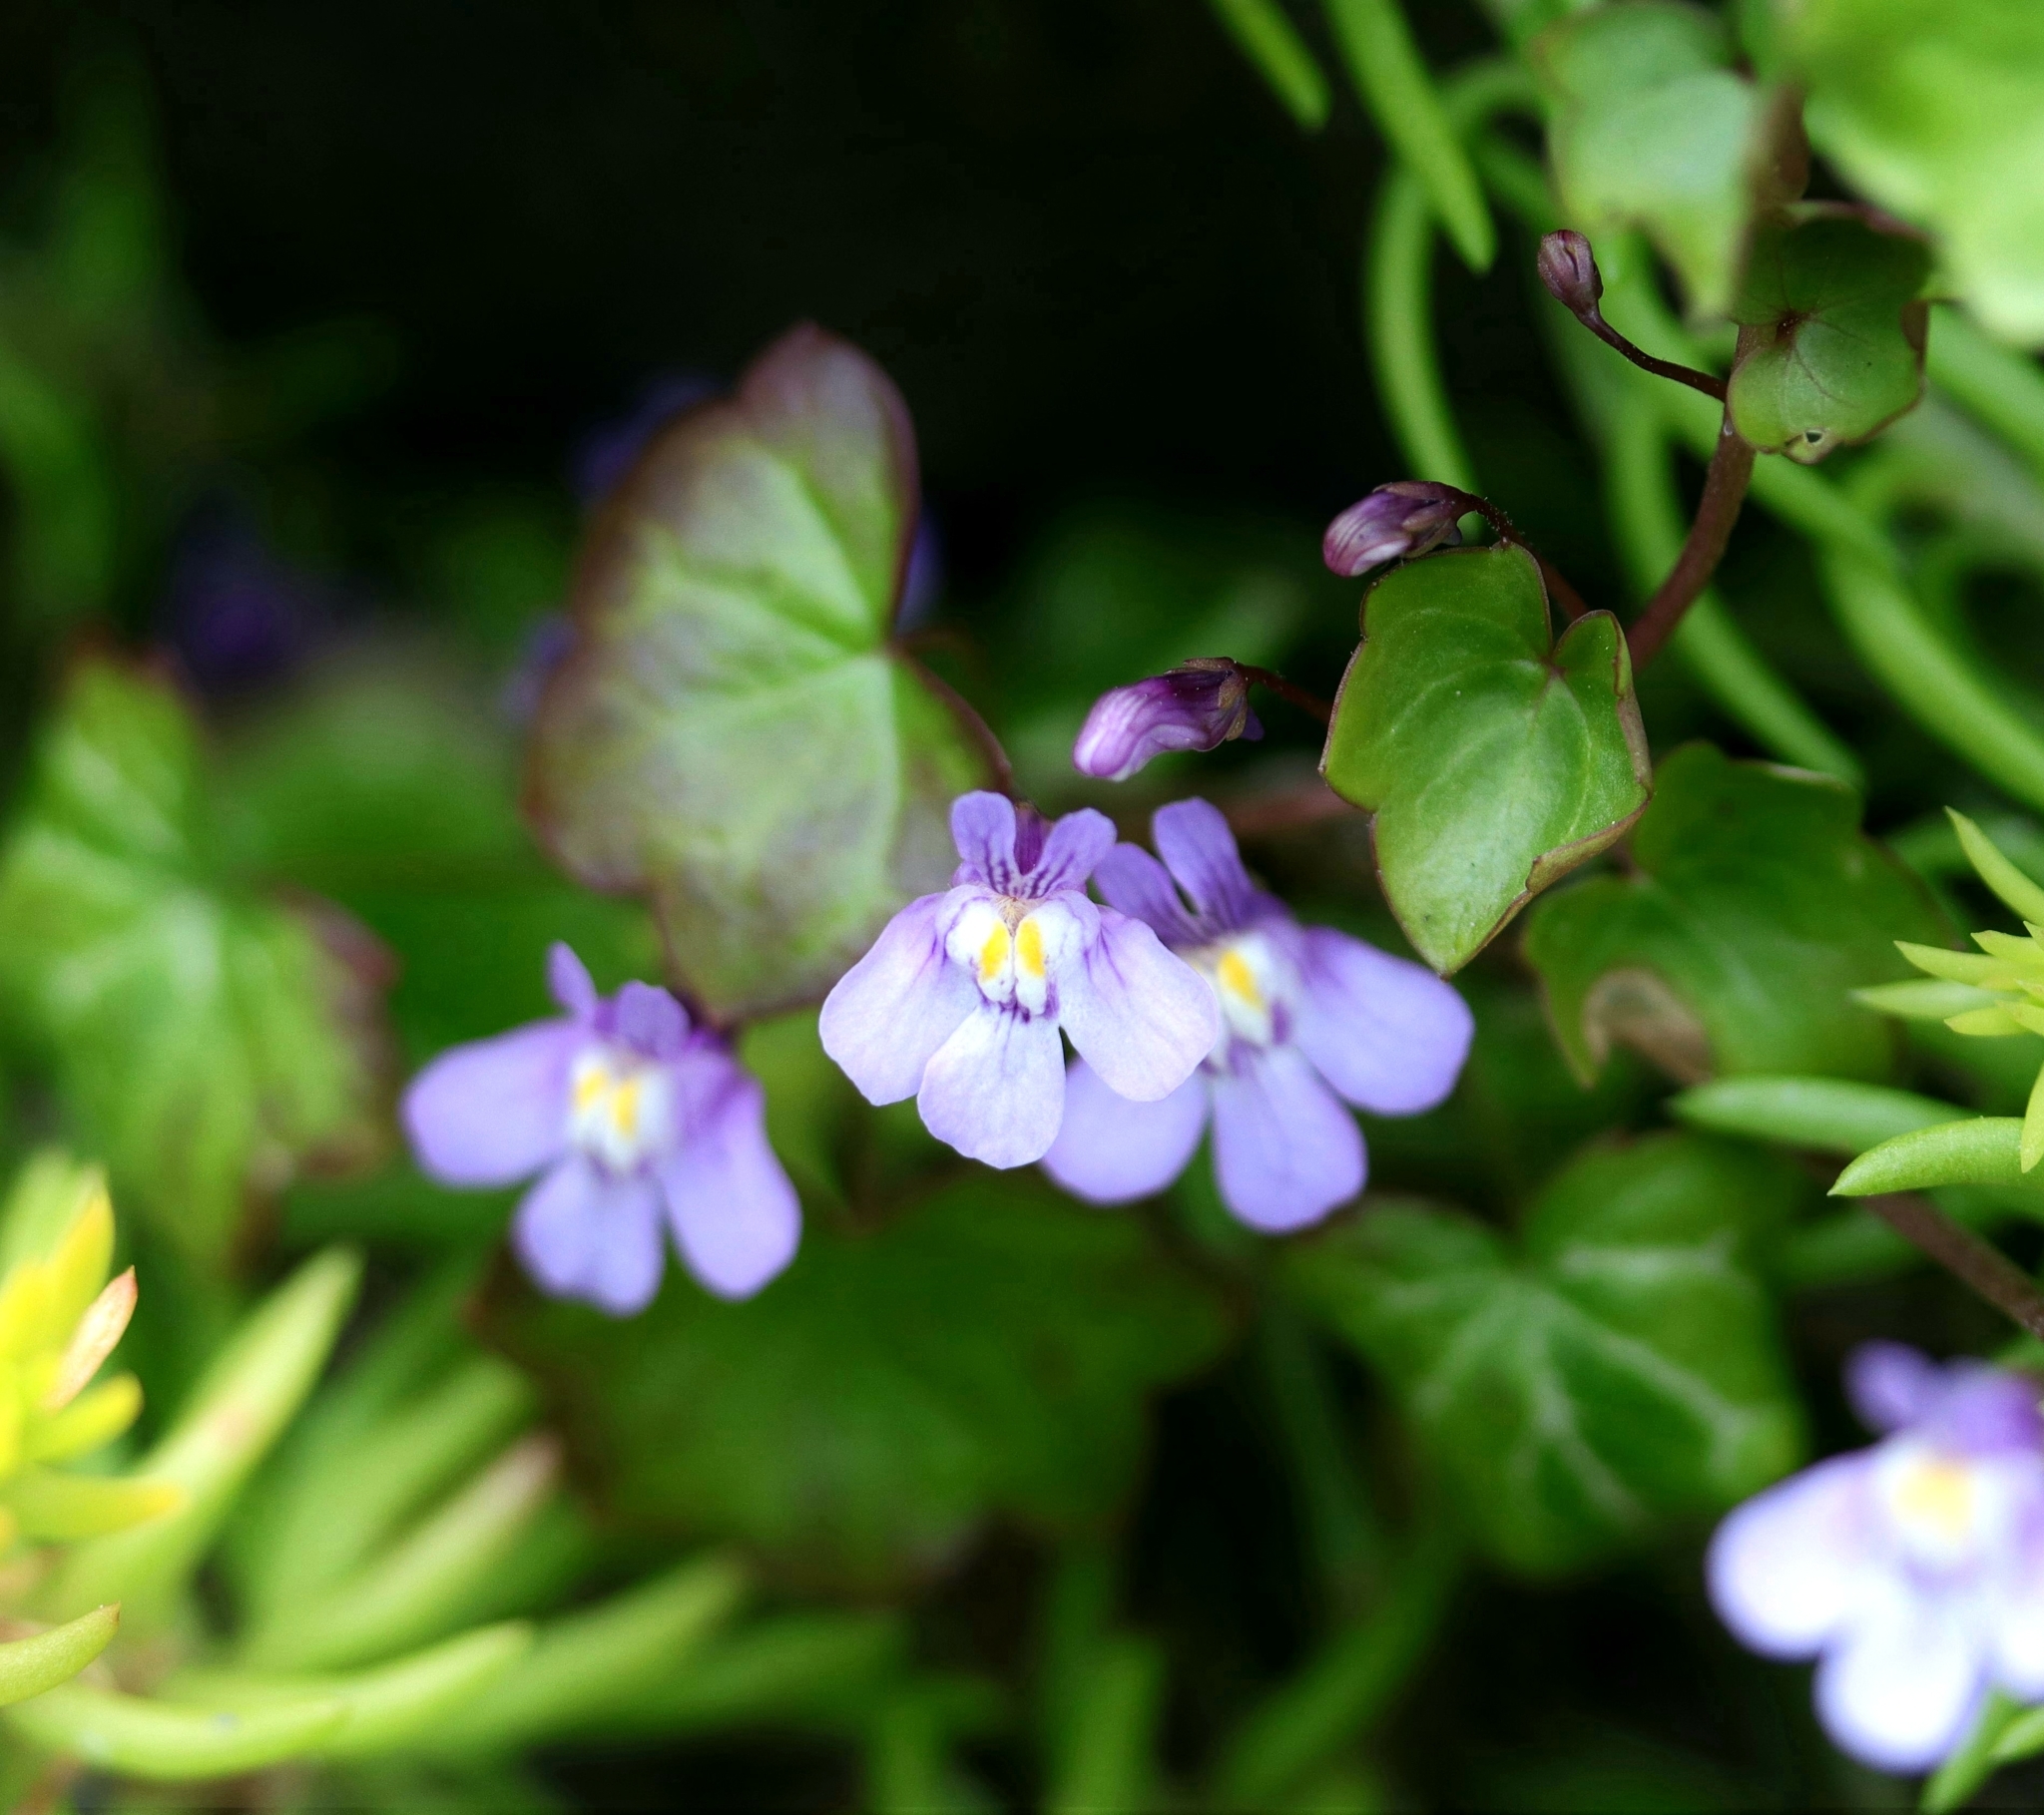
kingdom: Plantae
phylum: Tracheophyta
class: Magnoliopsida
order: Lamiales
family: Plantaginaceae
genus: Cymbalaria
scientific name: Cymbalaria muralis
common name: Ivy-leaved toadflax
